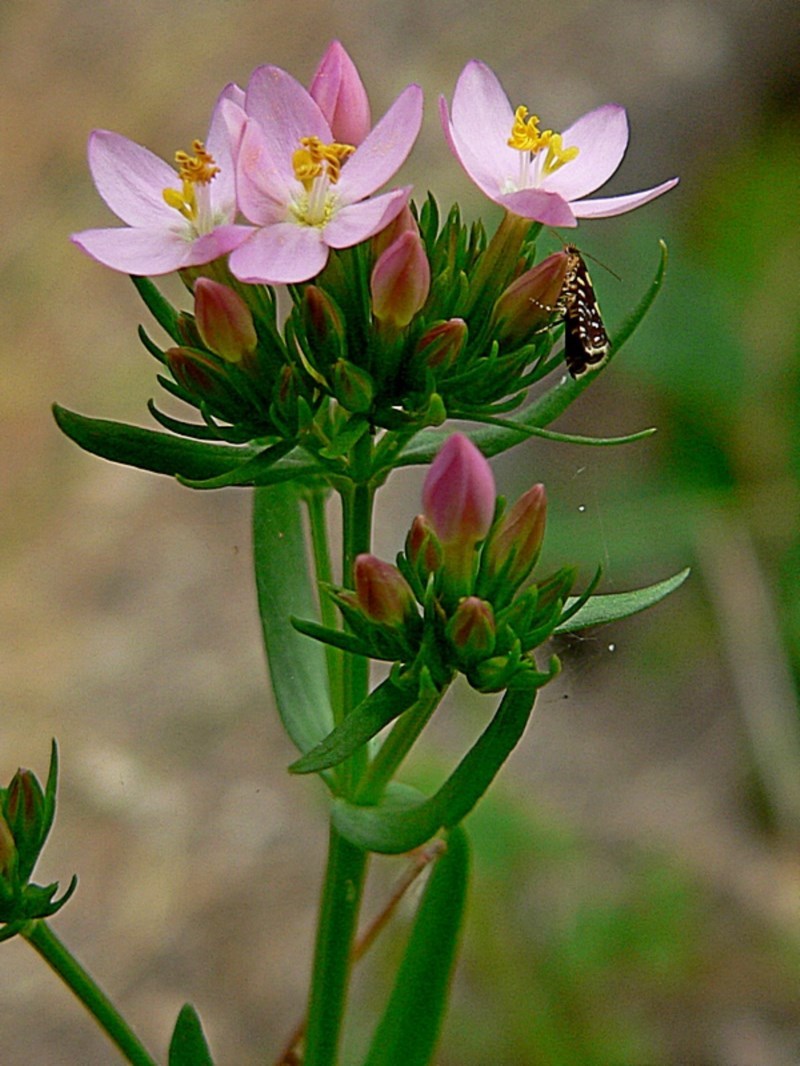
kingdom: Plantae
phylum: Tracheophyta
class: Magnoliopsida
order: Gentianales
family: Gentianaceae
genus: Centaurium
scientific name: Centaurium erythraea
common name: Common centaury
